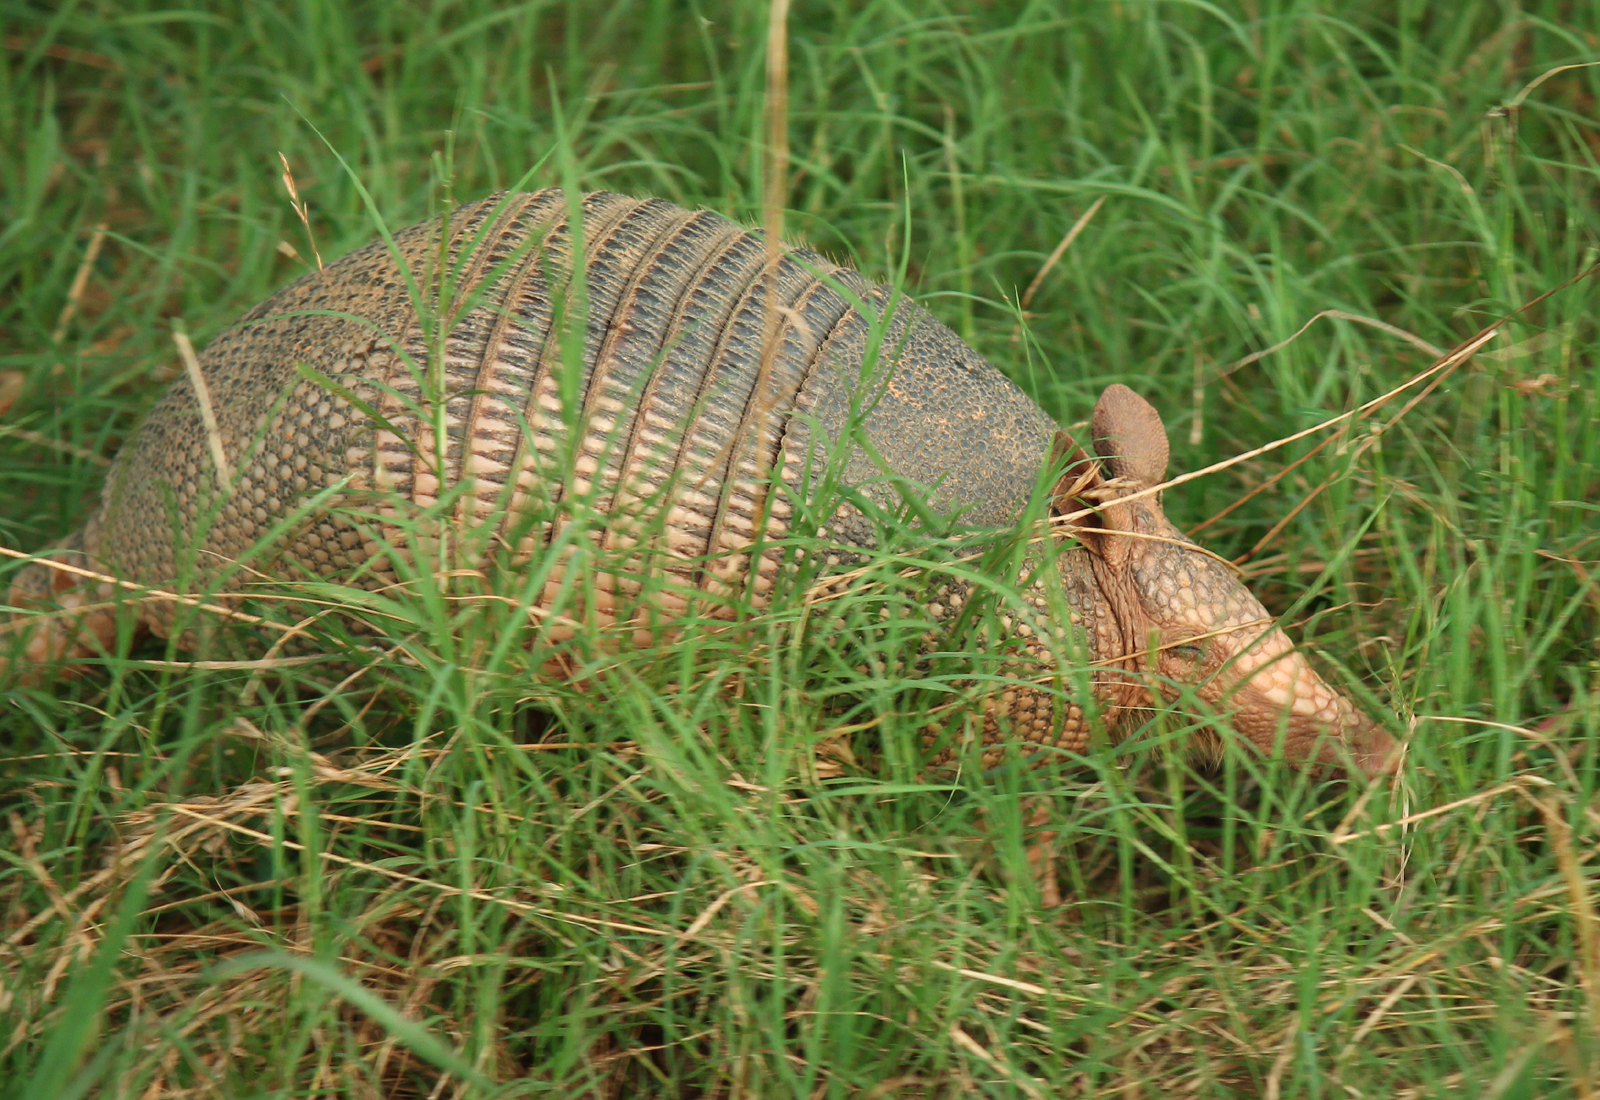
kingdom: Animalia
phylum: Chordata
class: Mammalia
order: Cingulata
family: Dasypodidae
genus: Dasypus
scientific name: Dasypus novemcinctus
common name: Nine-banded armadillo
